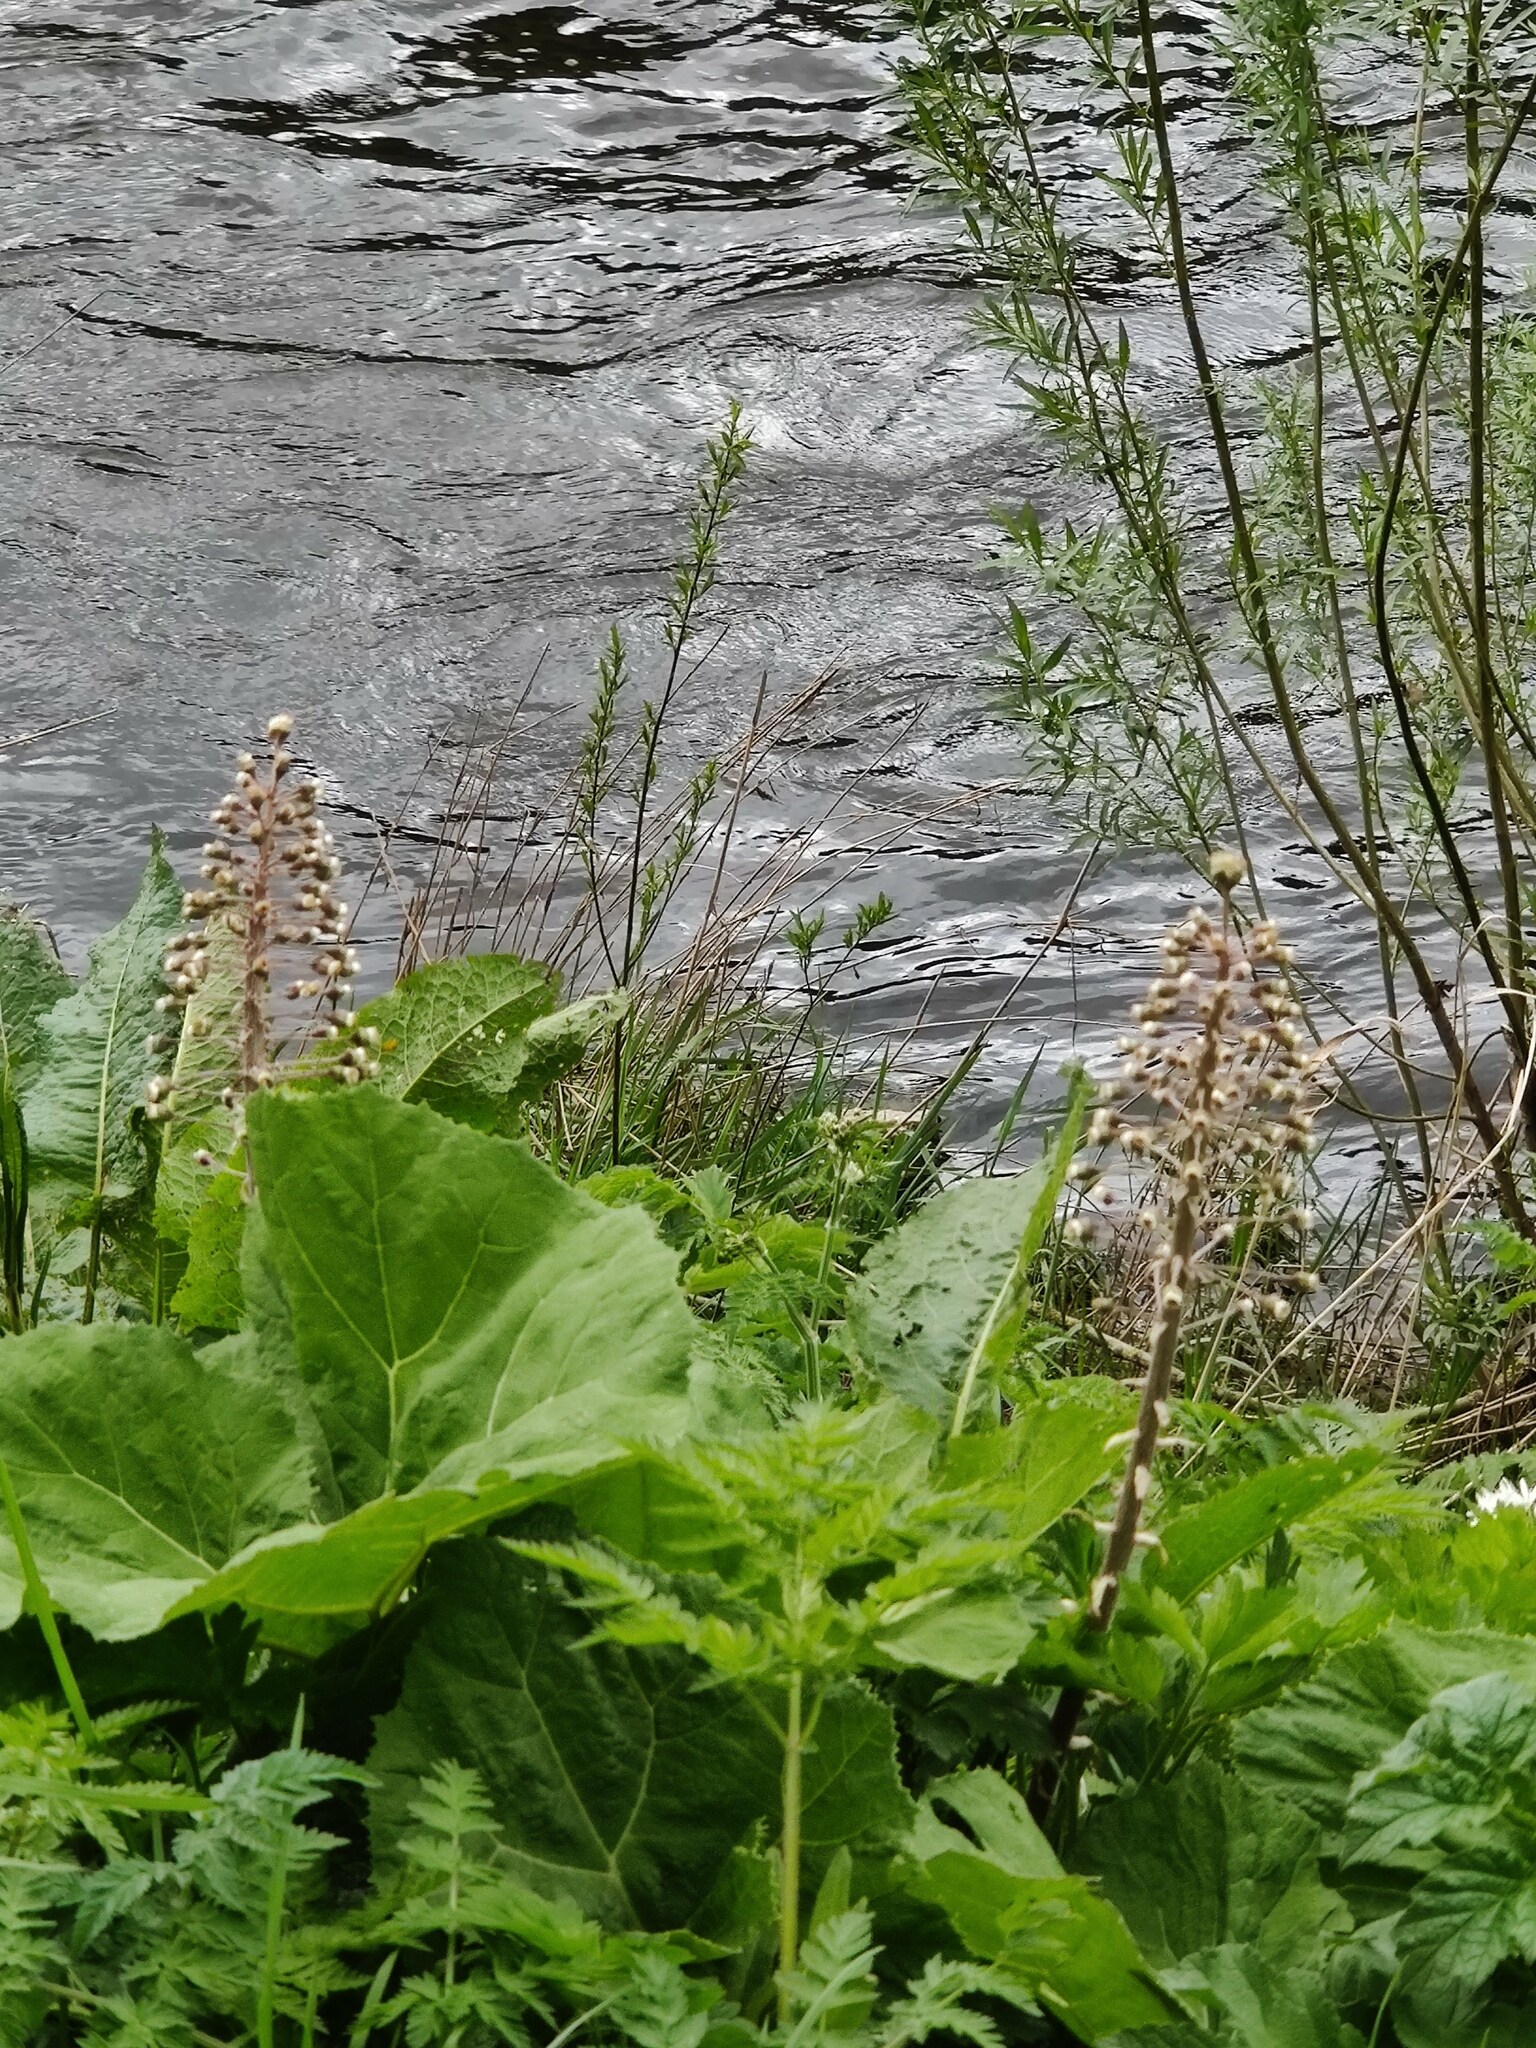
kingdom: Plantae
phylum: Tracheophyta
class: Magnoliopsida
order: Asterales
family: Asteraceae
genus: Petasites
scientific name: Petasites hybridus
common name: Butterbur
